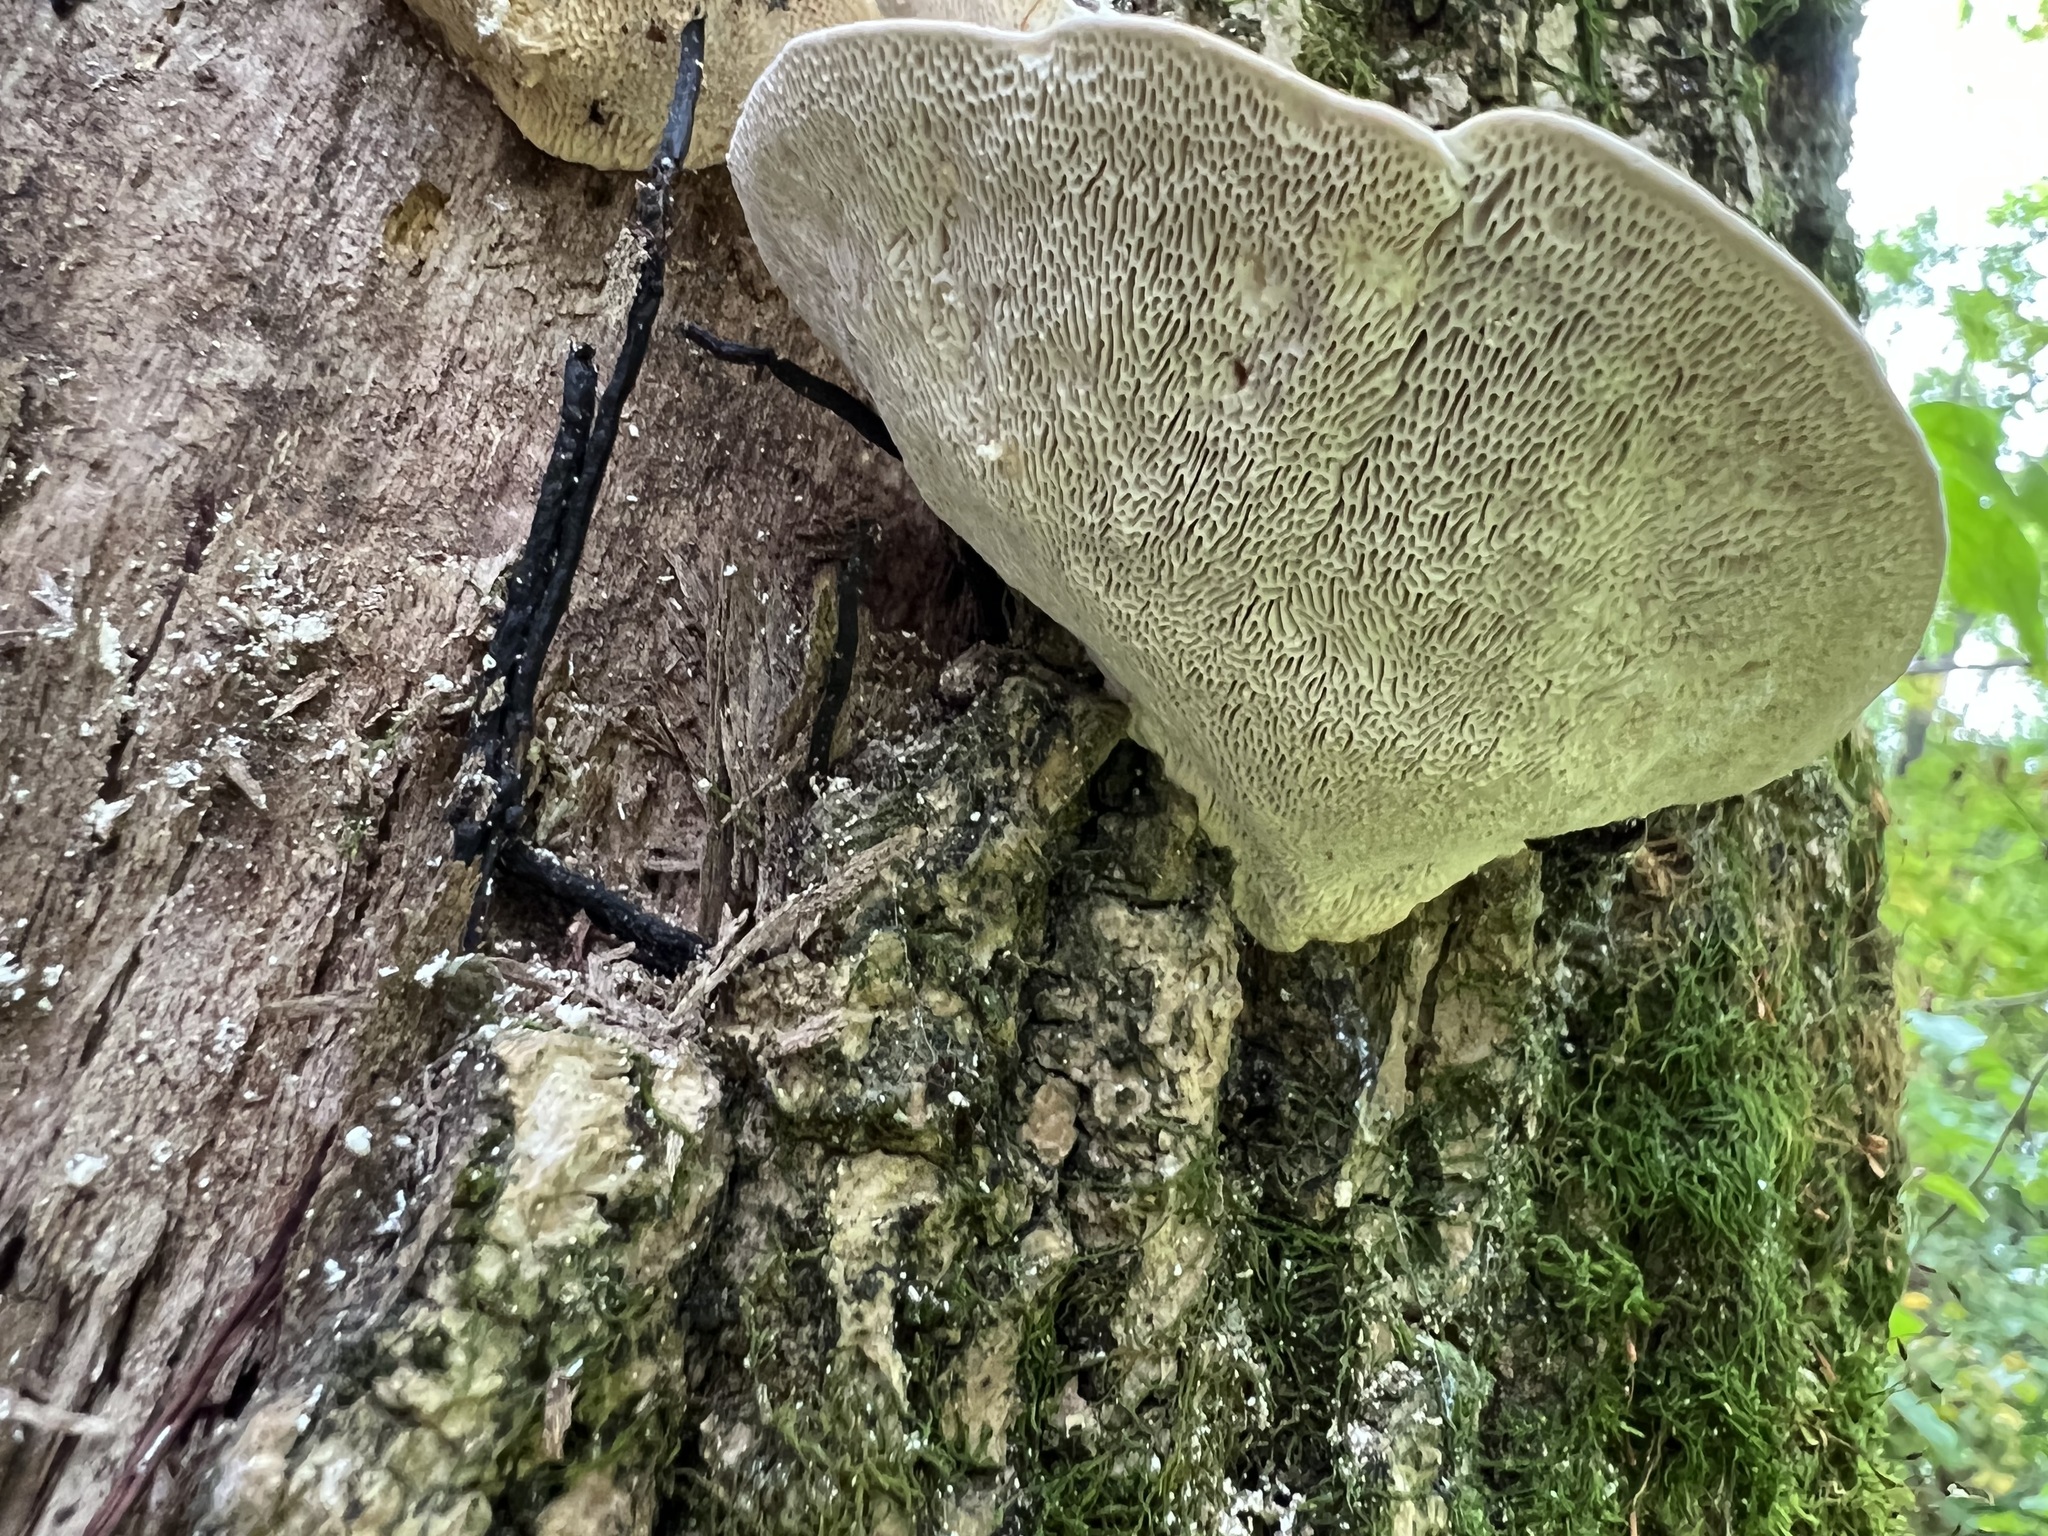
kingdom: Fungi
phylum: Basidiomycota
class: Agaricomycetes
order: Polyporales
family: Polyporaceae
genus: Trametes
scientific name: Trametes gibbosa
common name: Lumpy bracket
